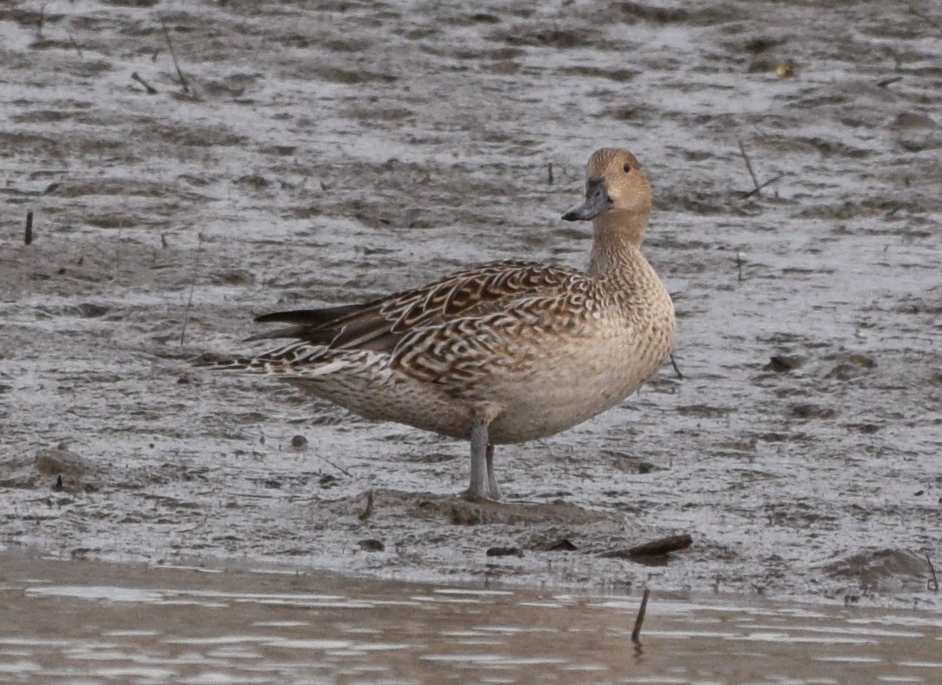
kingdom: Animalia
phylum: Chordata
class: Aves
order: Anseriformes
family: Anatidae
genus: Anas
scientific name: Anas acuta
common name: Northern pintail
